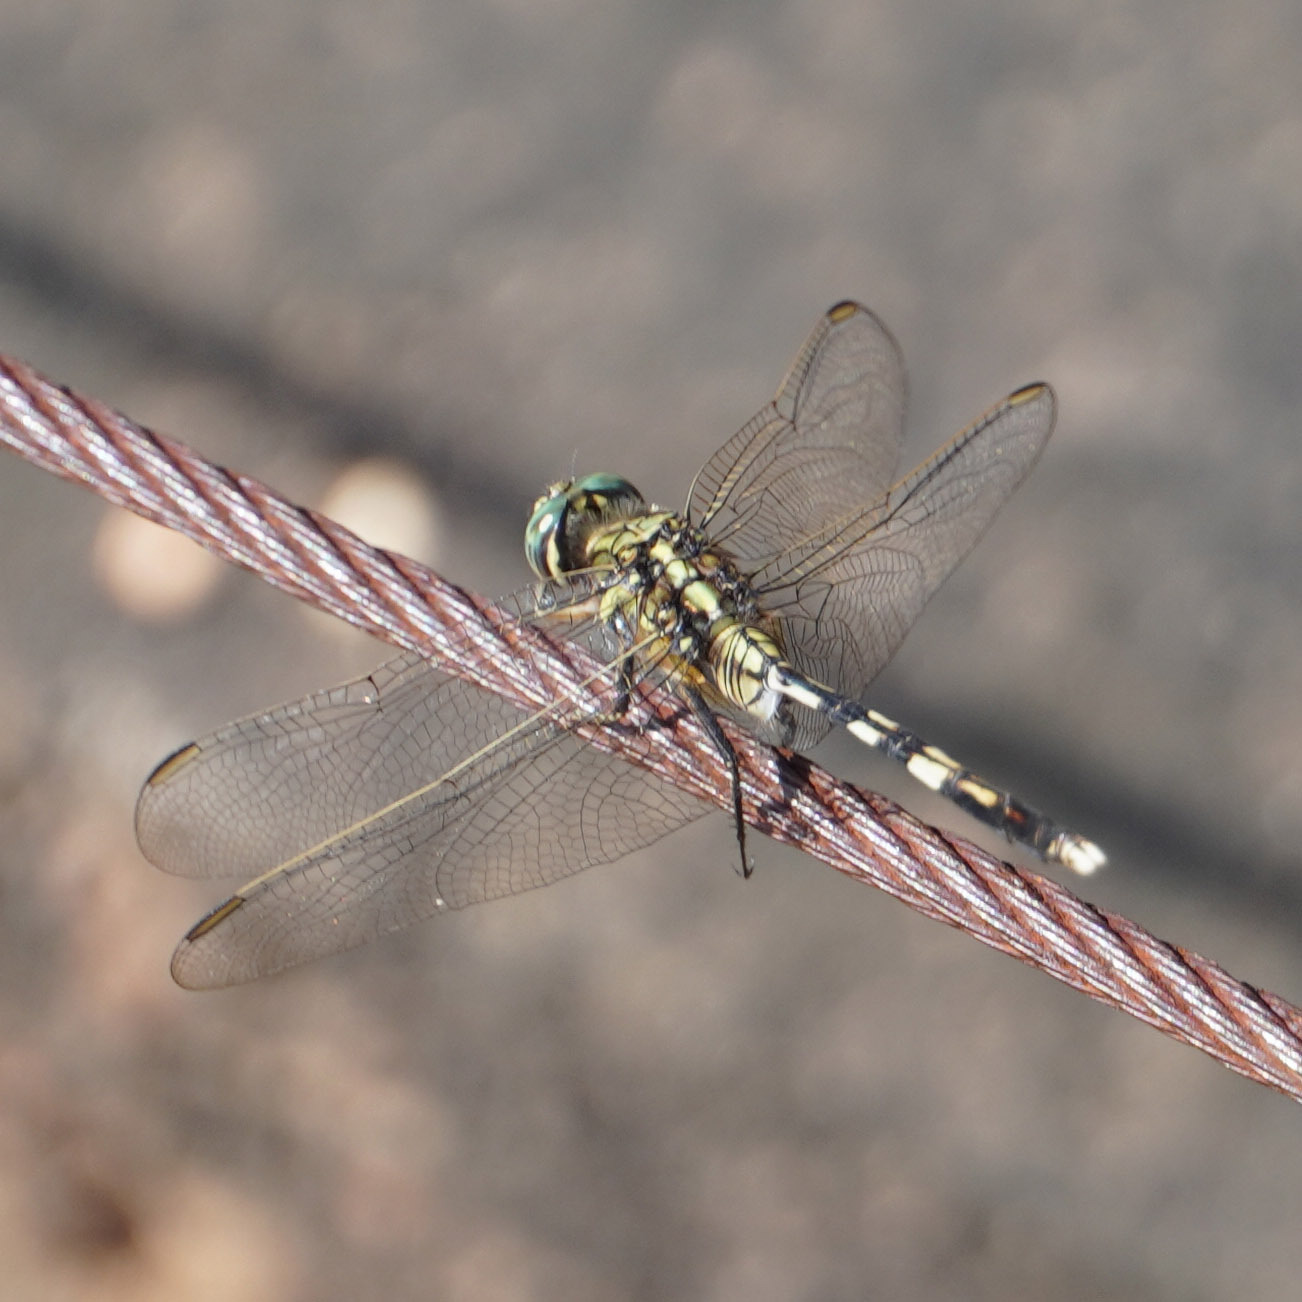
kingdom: Animalia
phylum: Arthropoda
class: Insecta
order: Odonata
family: Libellulidae
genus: Orthetrum
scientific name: Orthetrum sabina
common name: Slender skimmer
